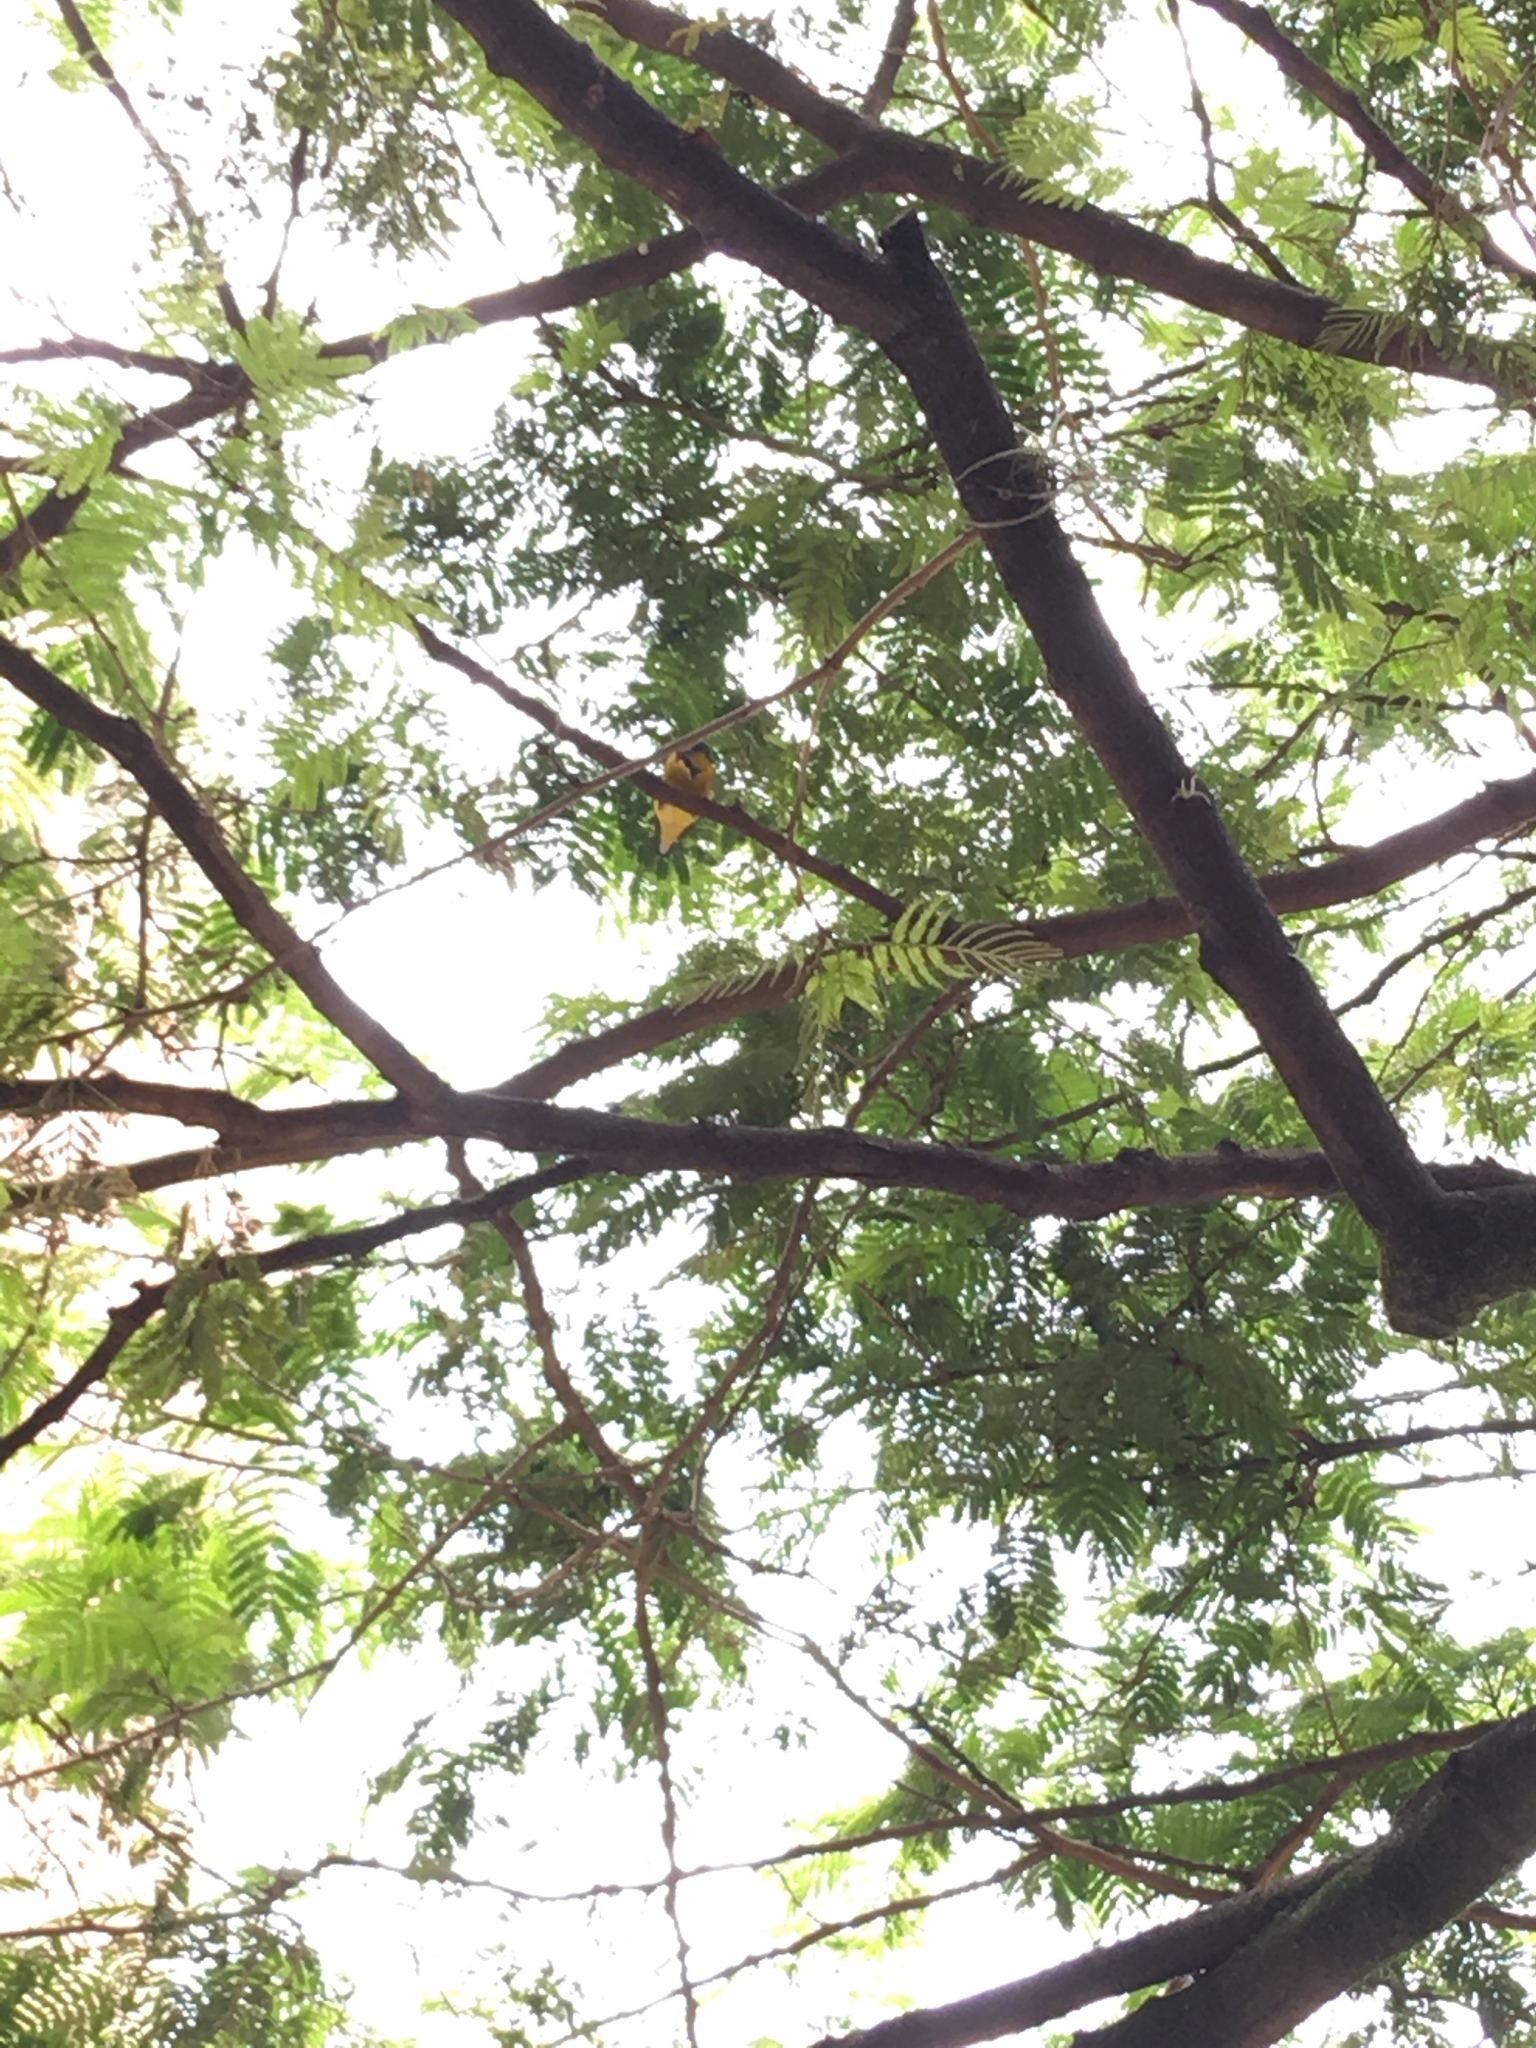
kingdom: Animalia
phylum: Chordata
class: Aves
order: Passeriformes
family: Fringillidae
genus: Euphonia
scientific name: Euphonia laniirostris
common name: Thick-billed euphonia
